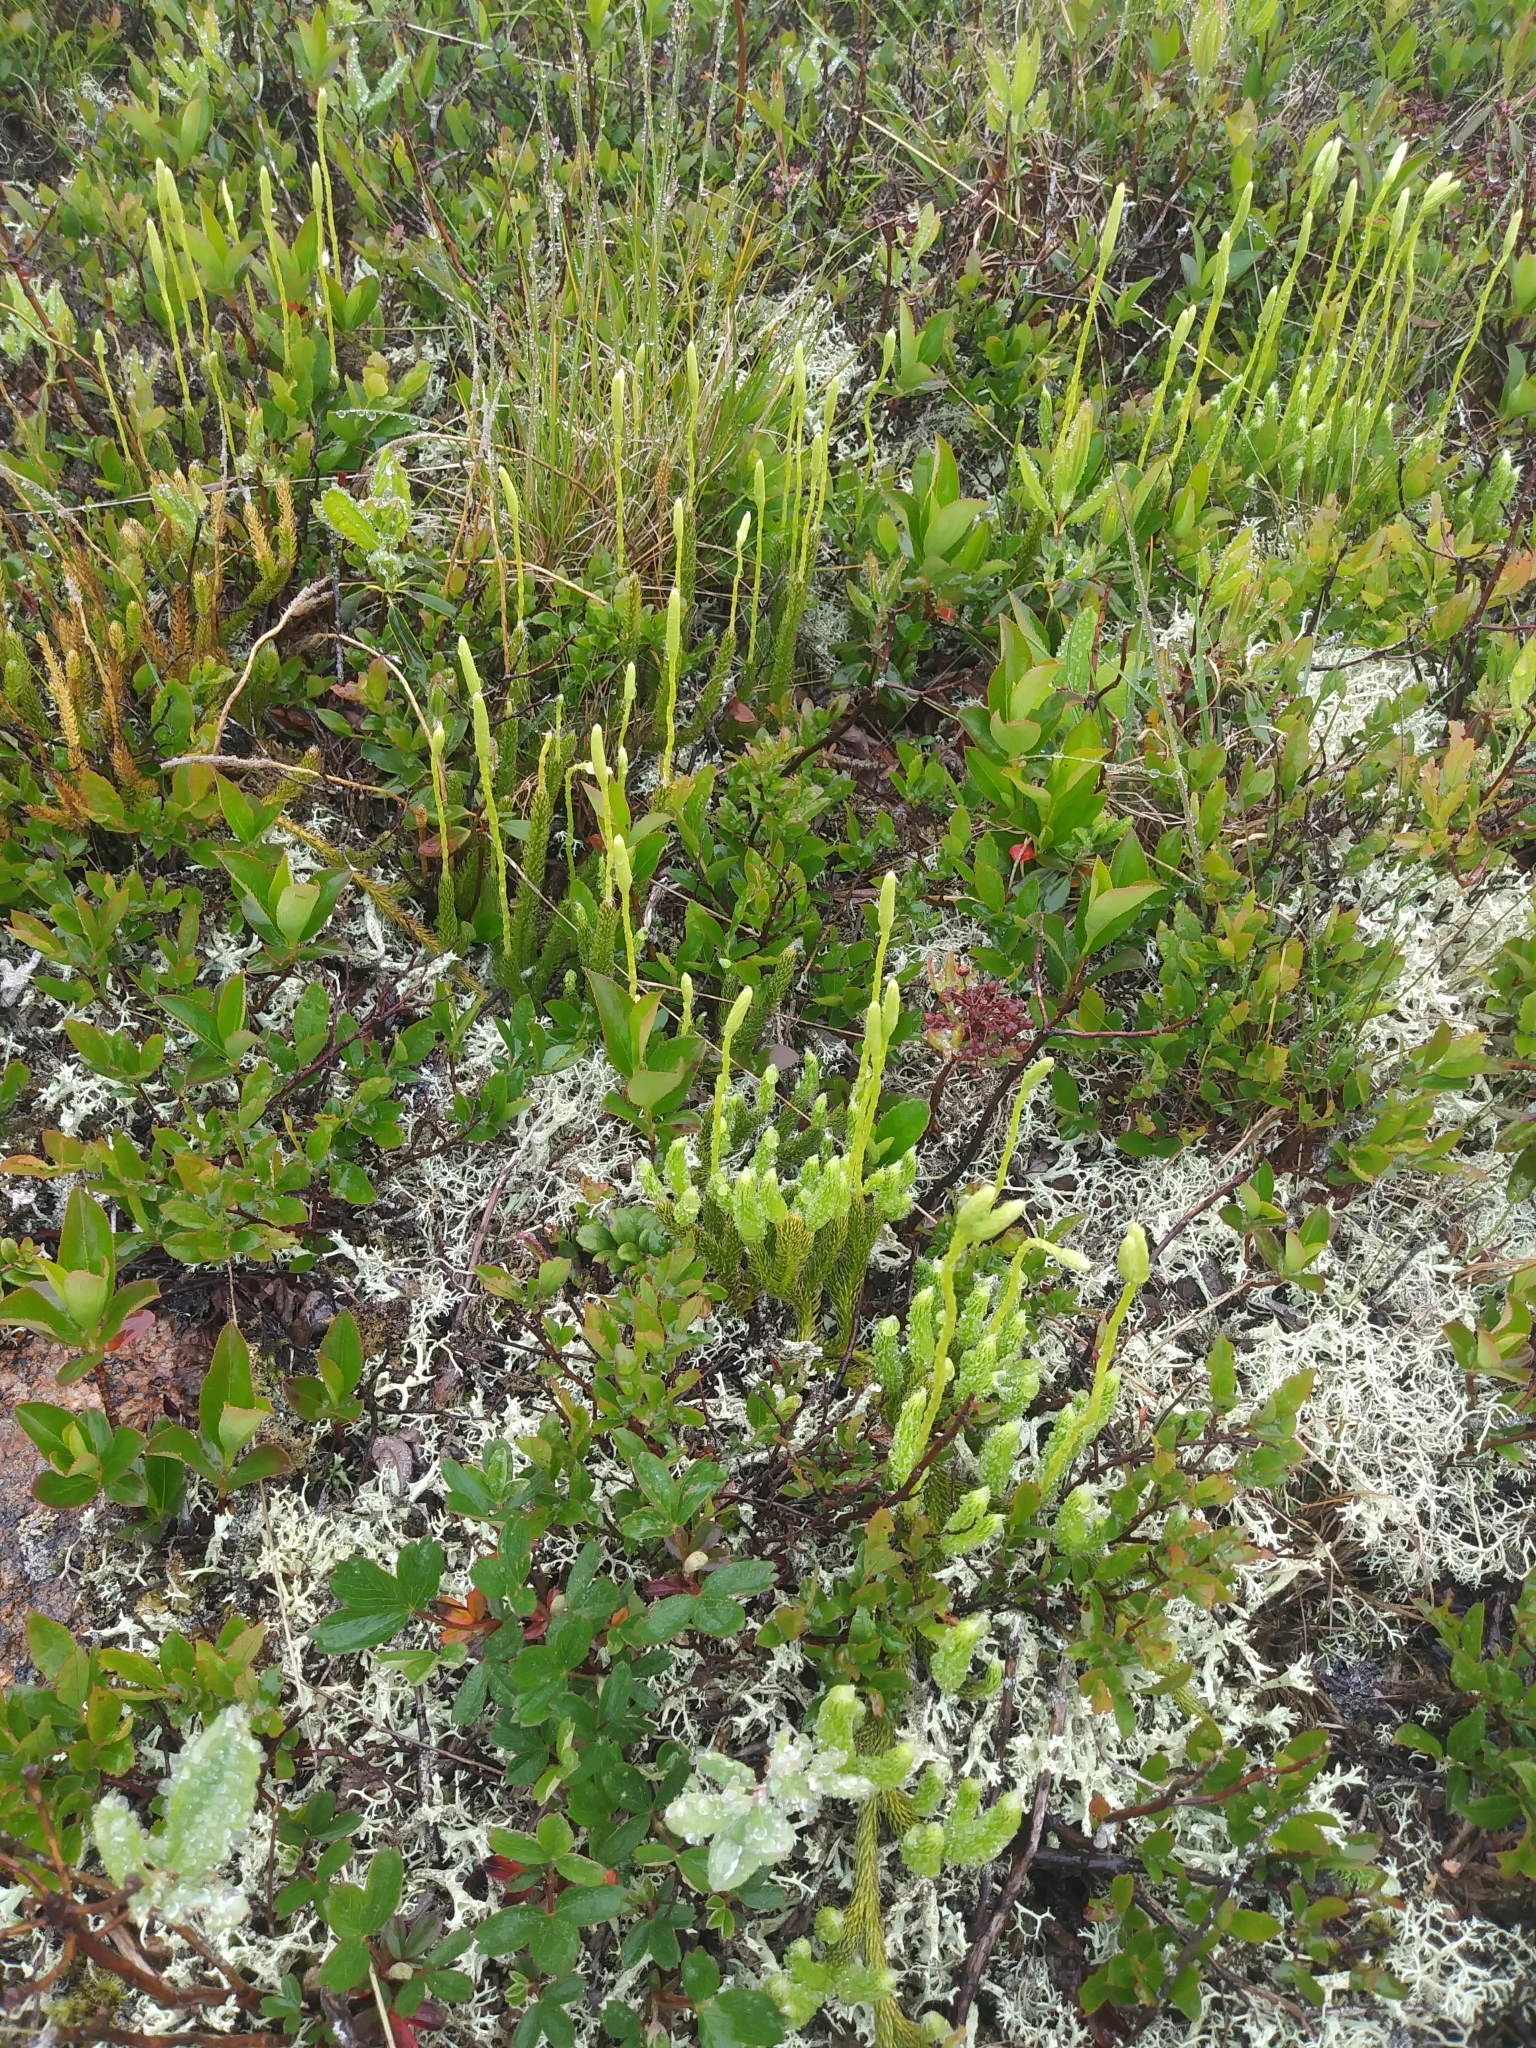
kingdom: Plantae
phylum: Tracheophyta
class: Lycopodiopsida
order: Lycopodiales
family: Lycopodiaceae
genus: Lycopodium
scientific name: Lycopodium lagopus
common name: One-cone clubmoss
